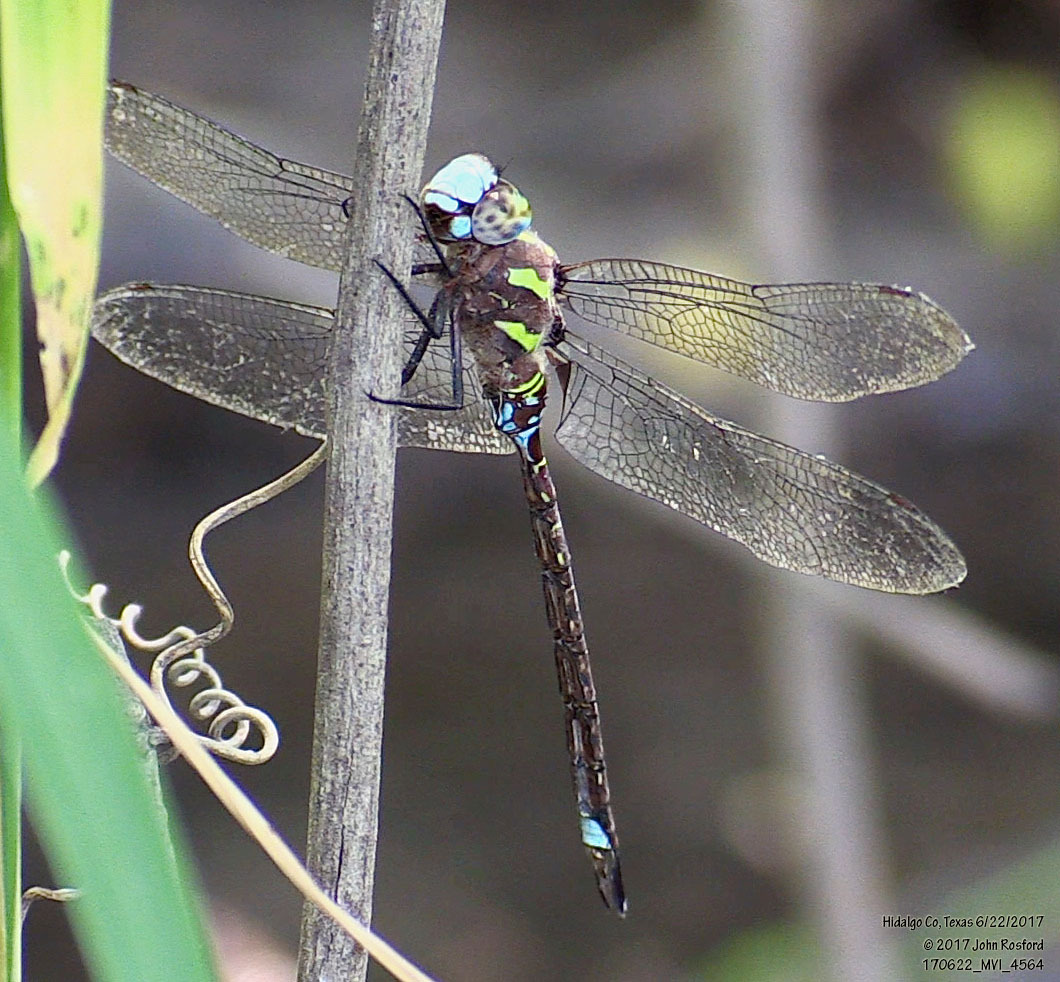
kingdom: Animalia
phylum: Arthropoda
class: Insecta
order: Odonata
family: Aeshnidae
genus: Rhionaeschna
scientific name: Rhionaeschna psilus
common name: Turquoise-tipped darner
